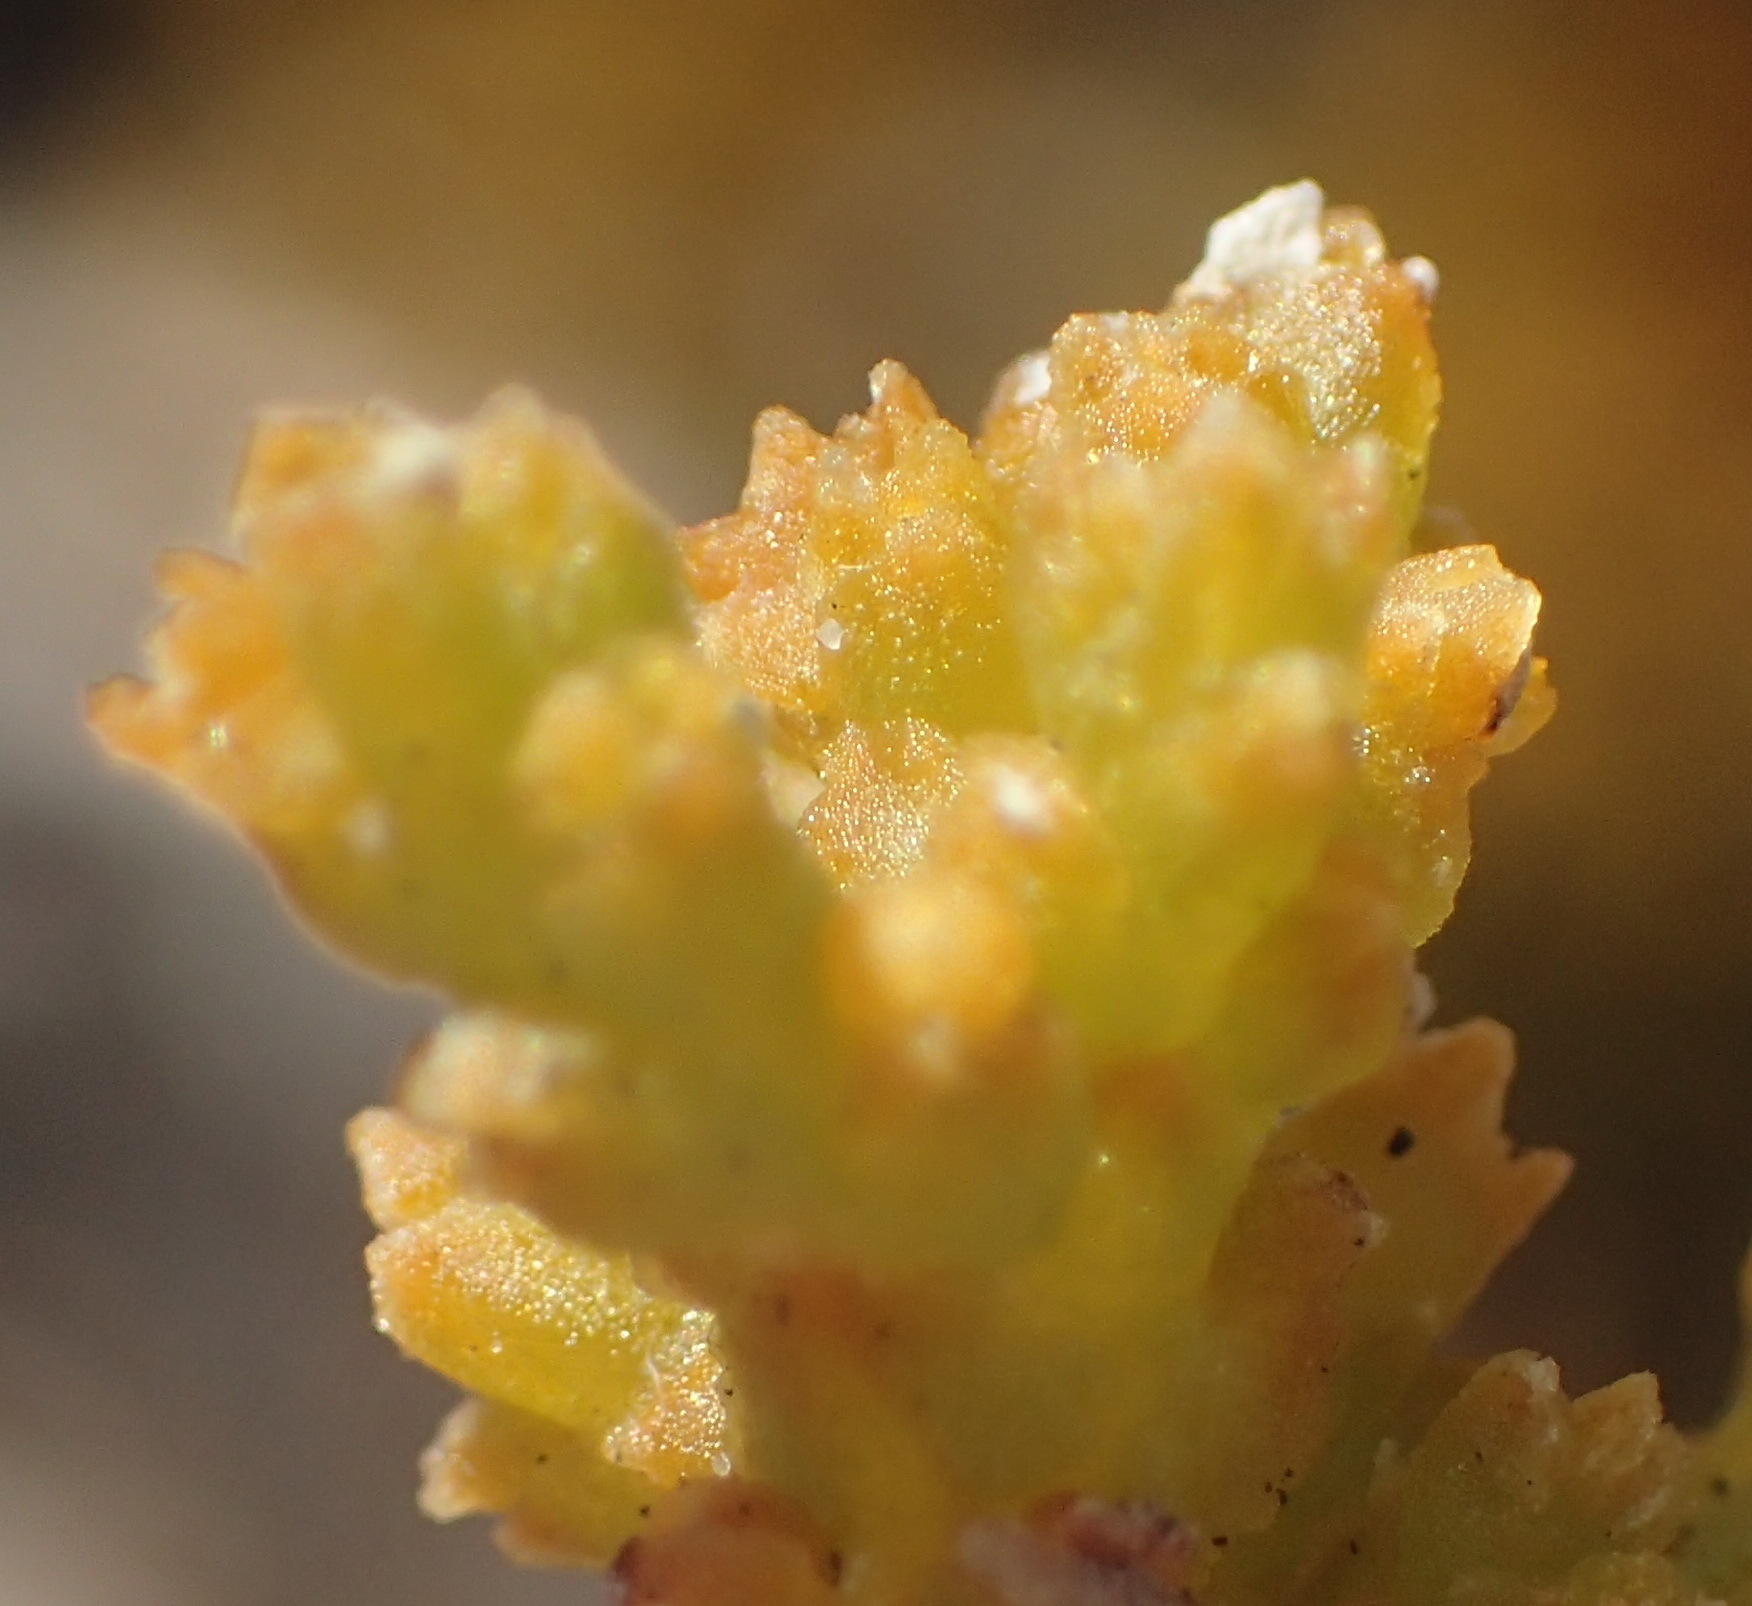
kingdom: Plantae
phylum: Tracheophyta
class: Magnoliopsida
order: Santalales
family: Thesiaceae
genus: Thesium
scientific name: Thesium confusum
